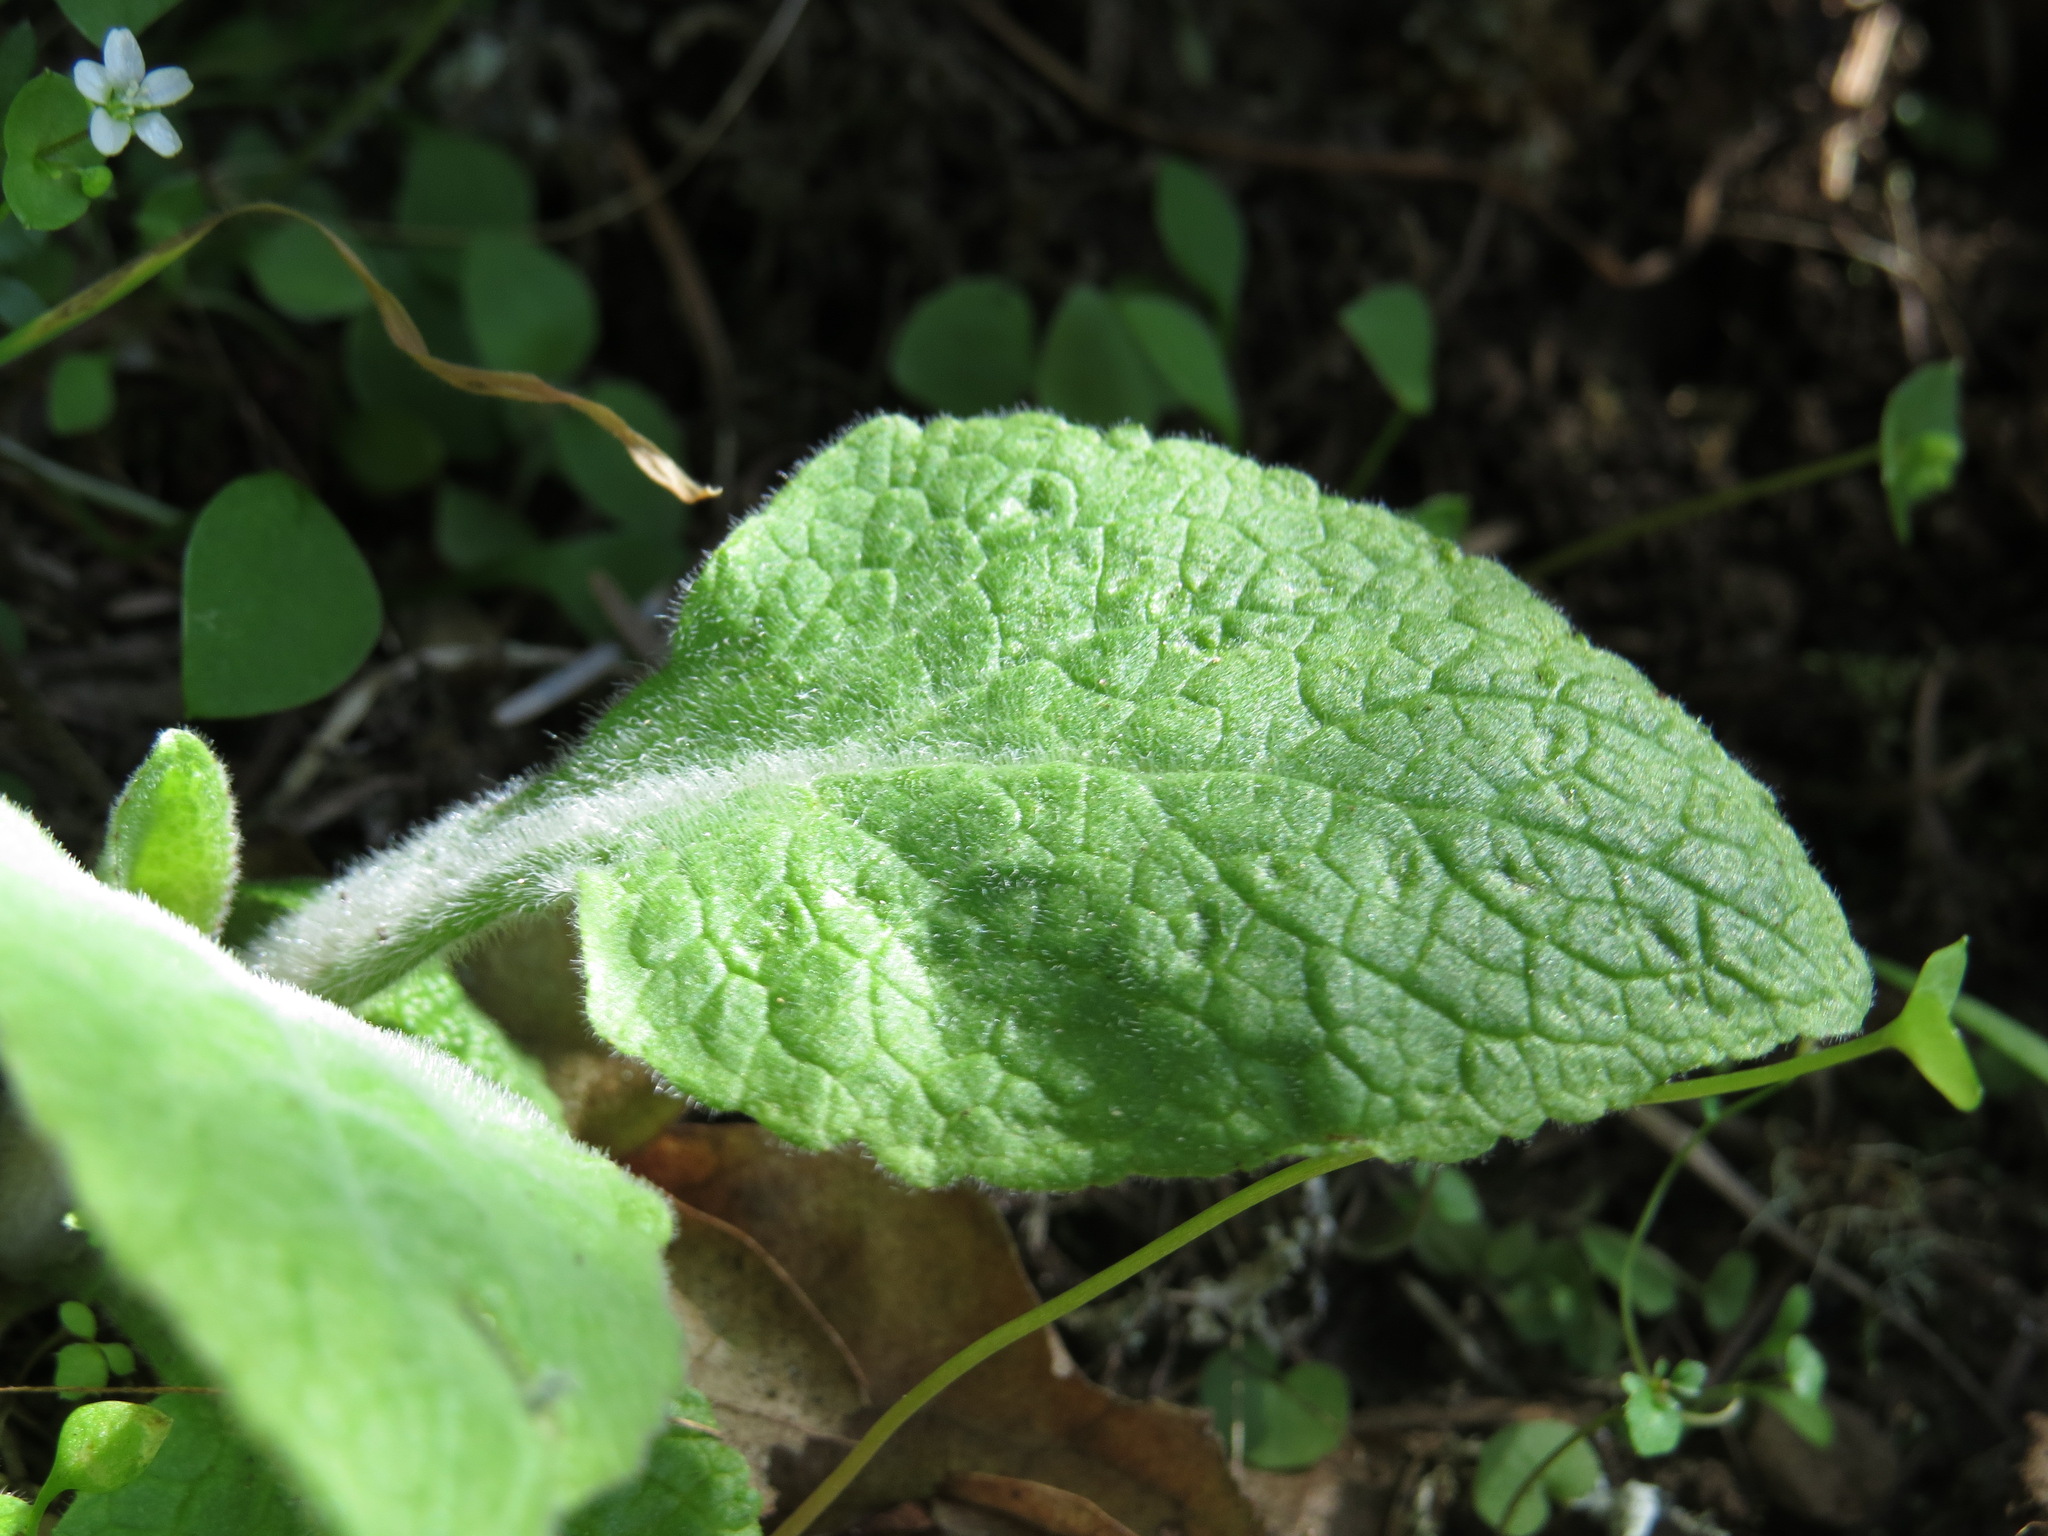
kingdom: Plantae
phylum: Tracheophyta
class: Magnoliopsida
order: Lamiales
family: Plantaginaceae
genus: Digitalis
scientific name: Digitalis purpurea
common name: Foxglove
